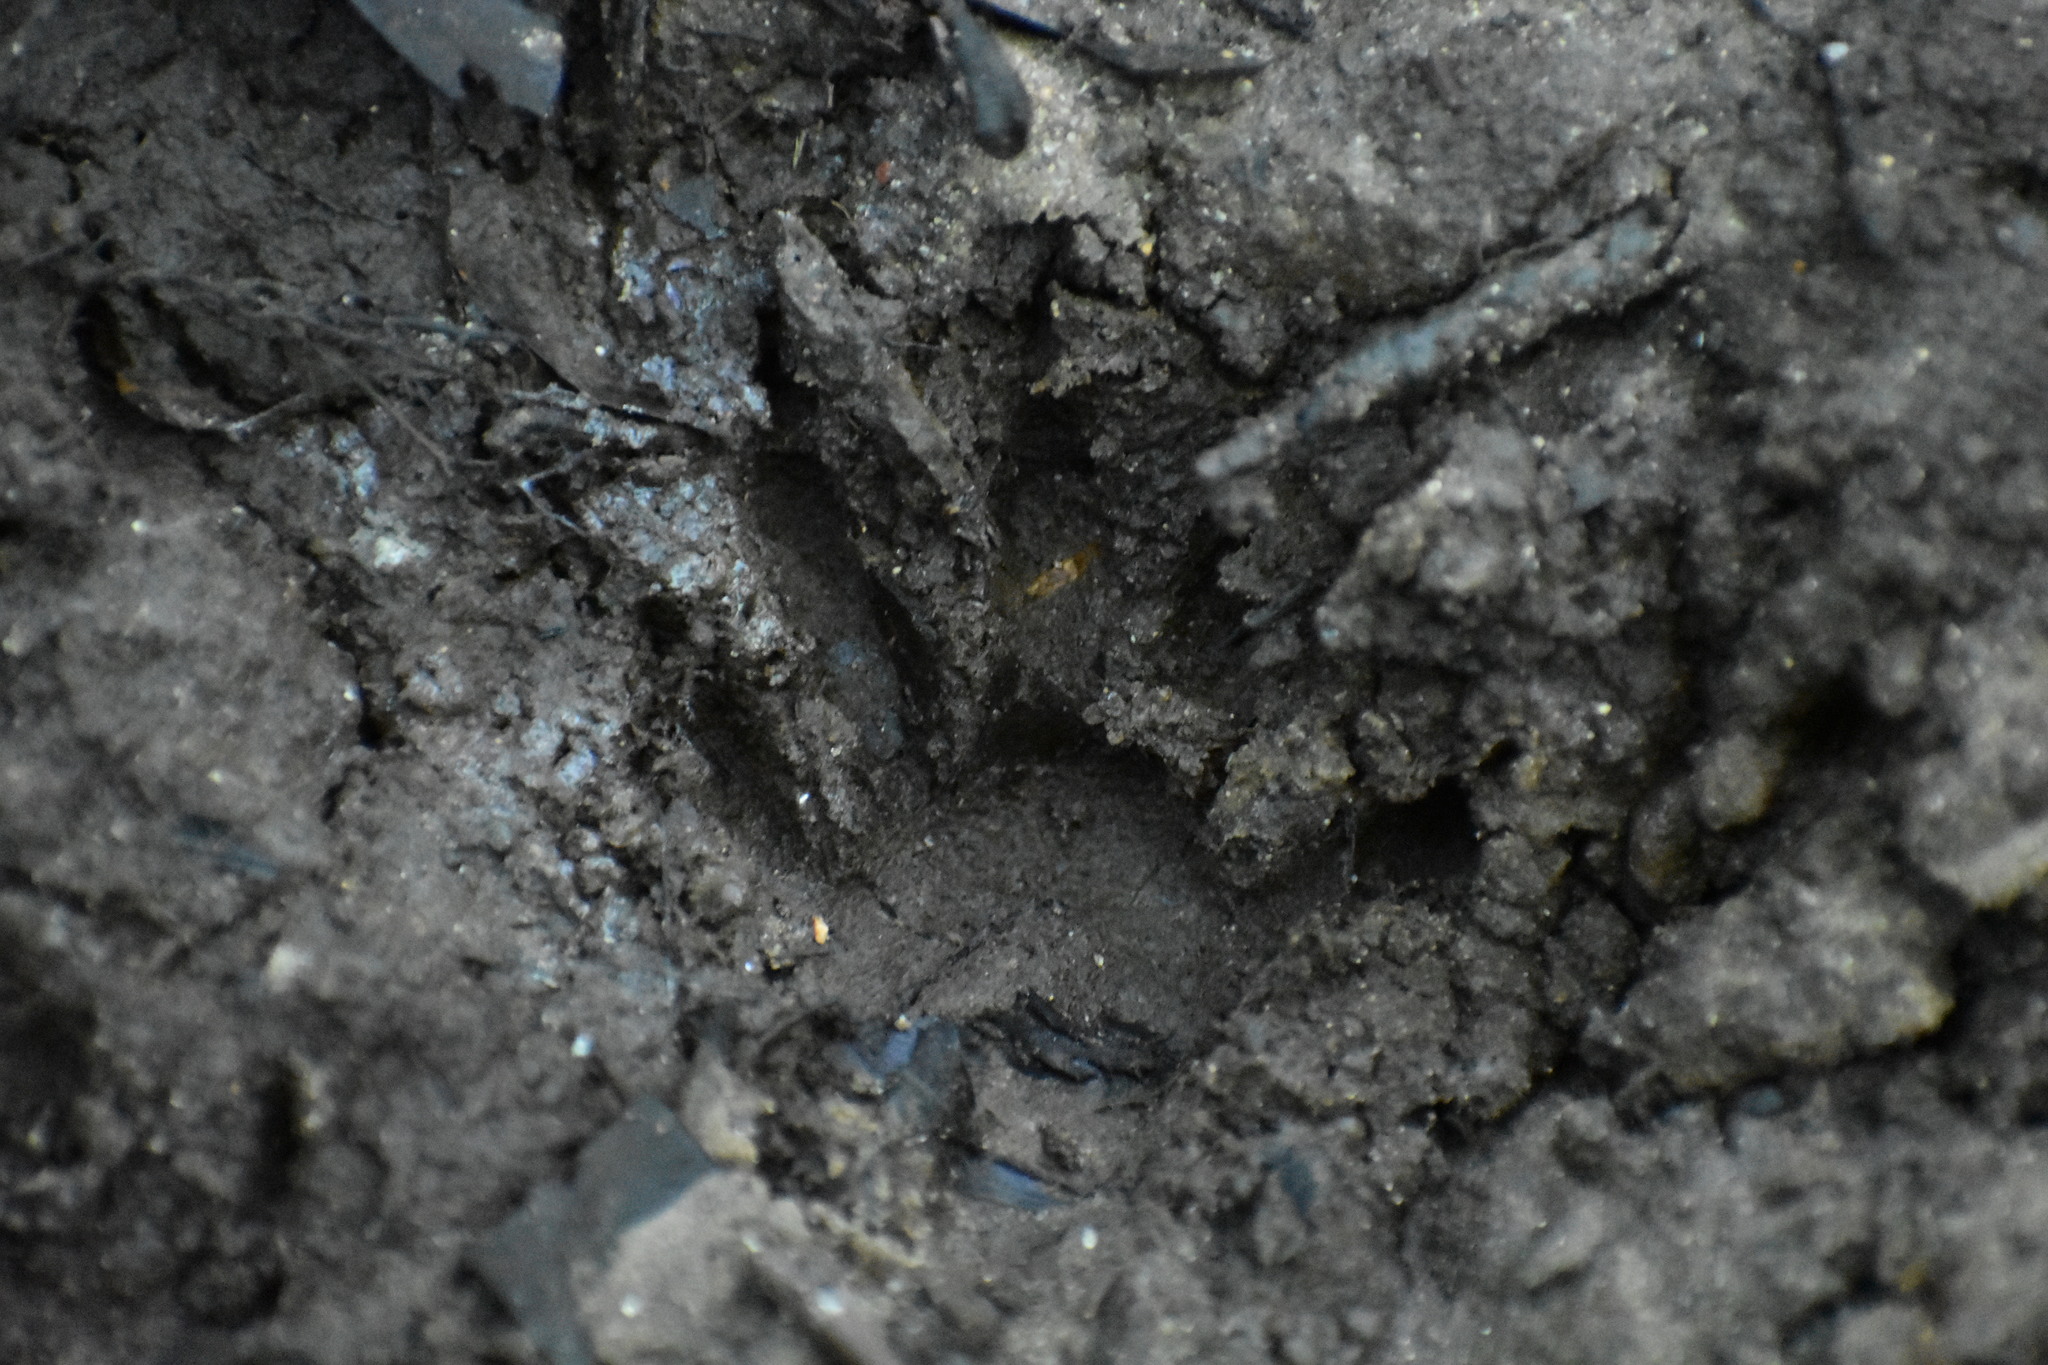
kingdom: Animalia
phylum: Chordata
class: Mammalia
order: Carnivora
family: Procyonidae
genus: Procyon
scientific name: Procyon lotor
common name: Raccoon
